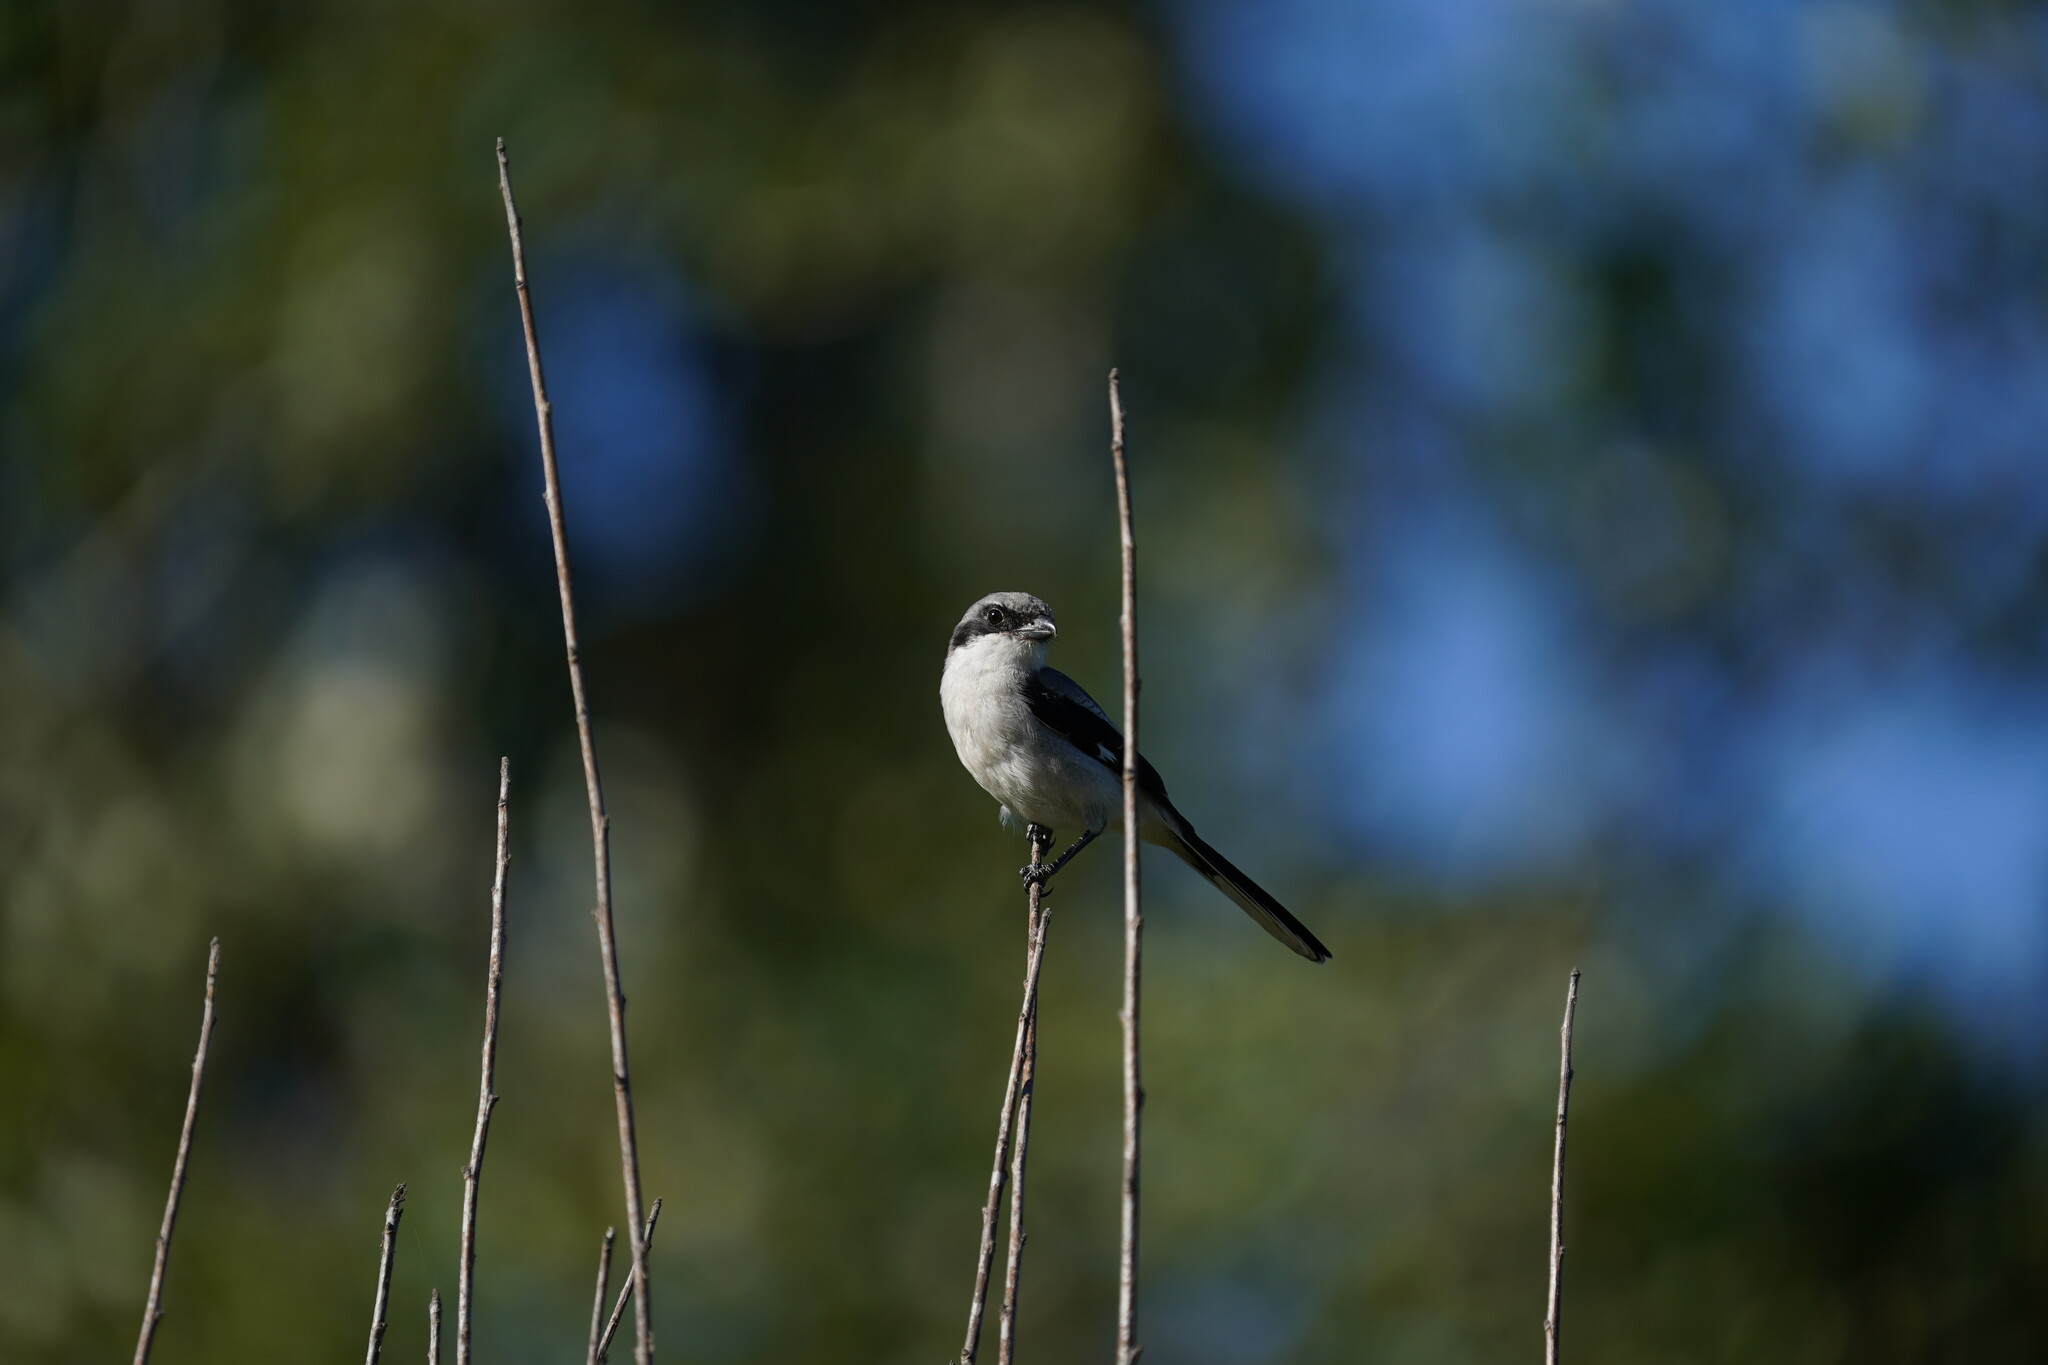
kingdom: Animalia
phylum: Chordata
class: Aves
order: Passeriformes
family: Laniidae
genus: Lanius
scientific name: Lanius ludovicianus
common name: Loggerhead shrike
